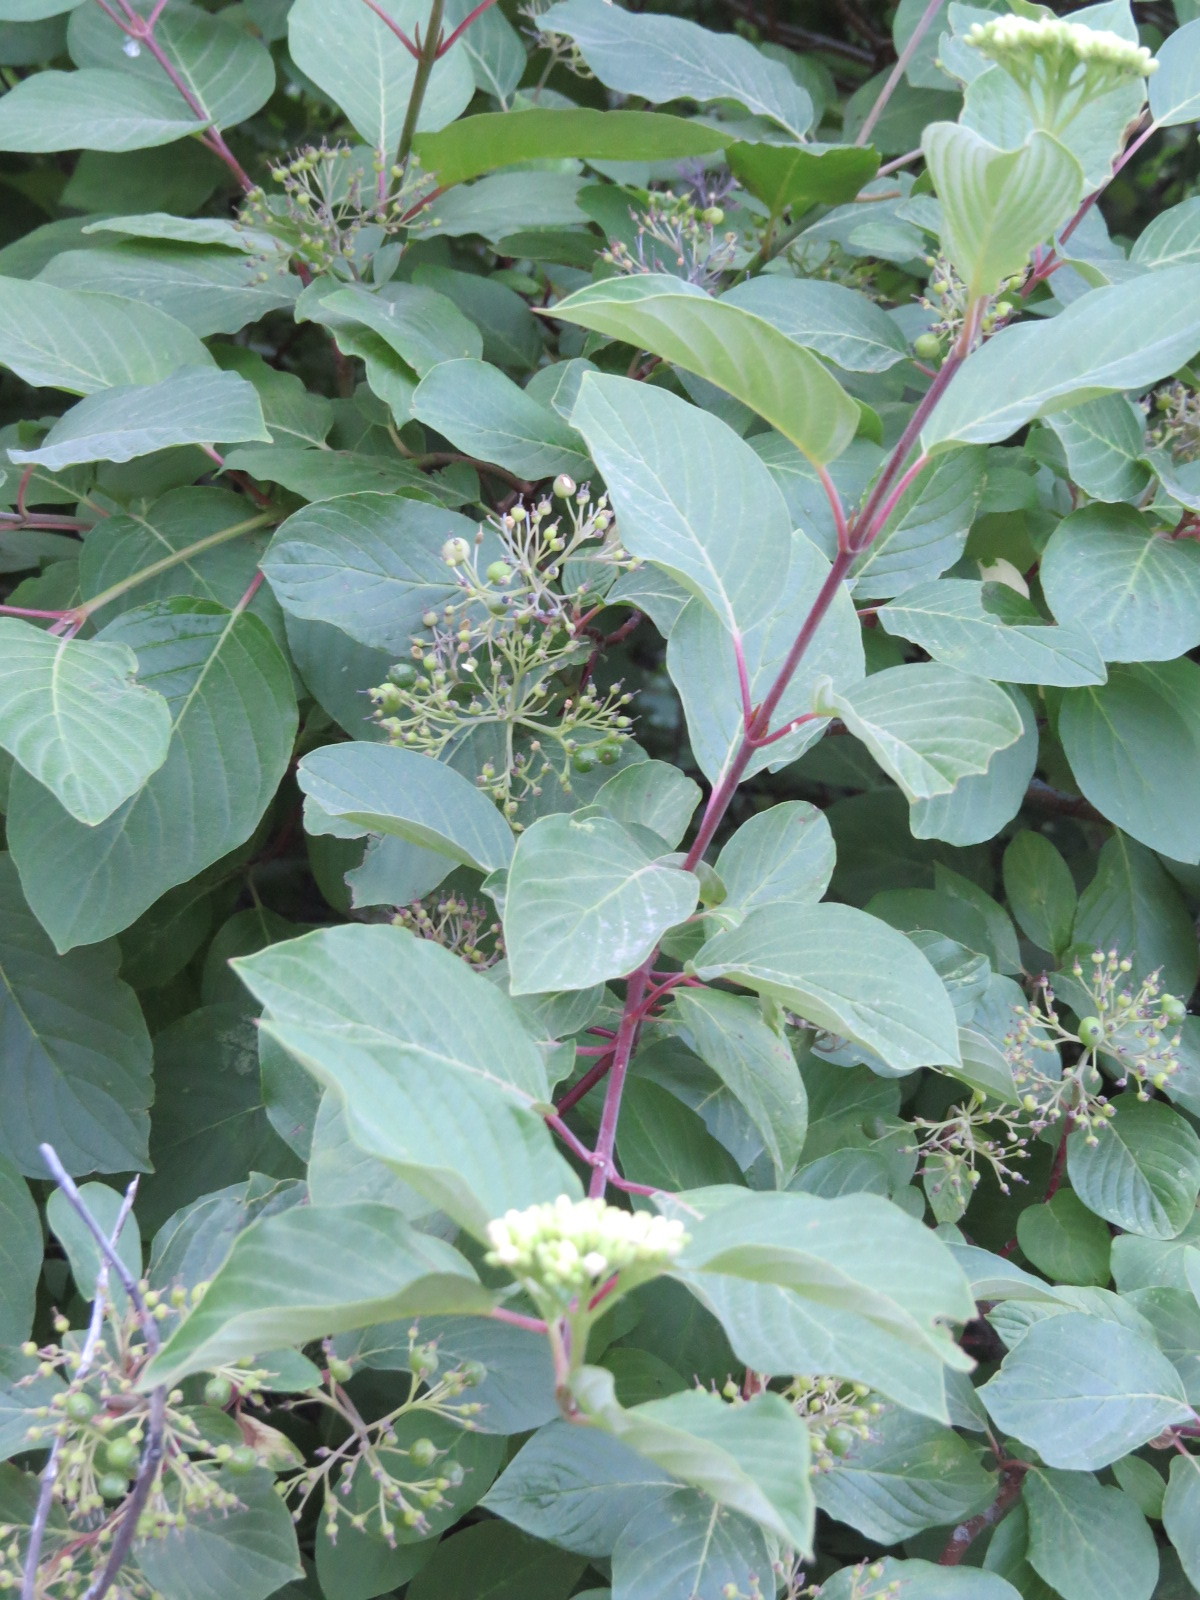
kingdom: Plantae
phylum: Tracheophyta
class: Magnoliopsida
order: Cornales
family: Cornaceae
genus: Cornus
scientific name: Cornus sericea
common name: Red-osier dogwood
